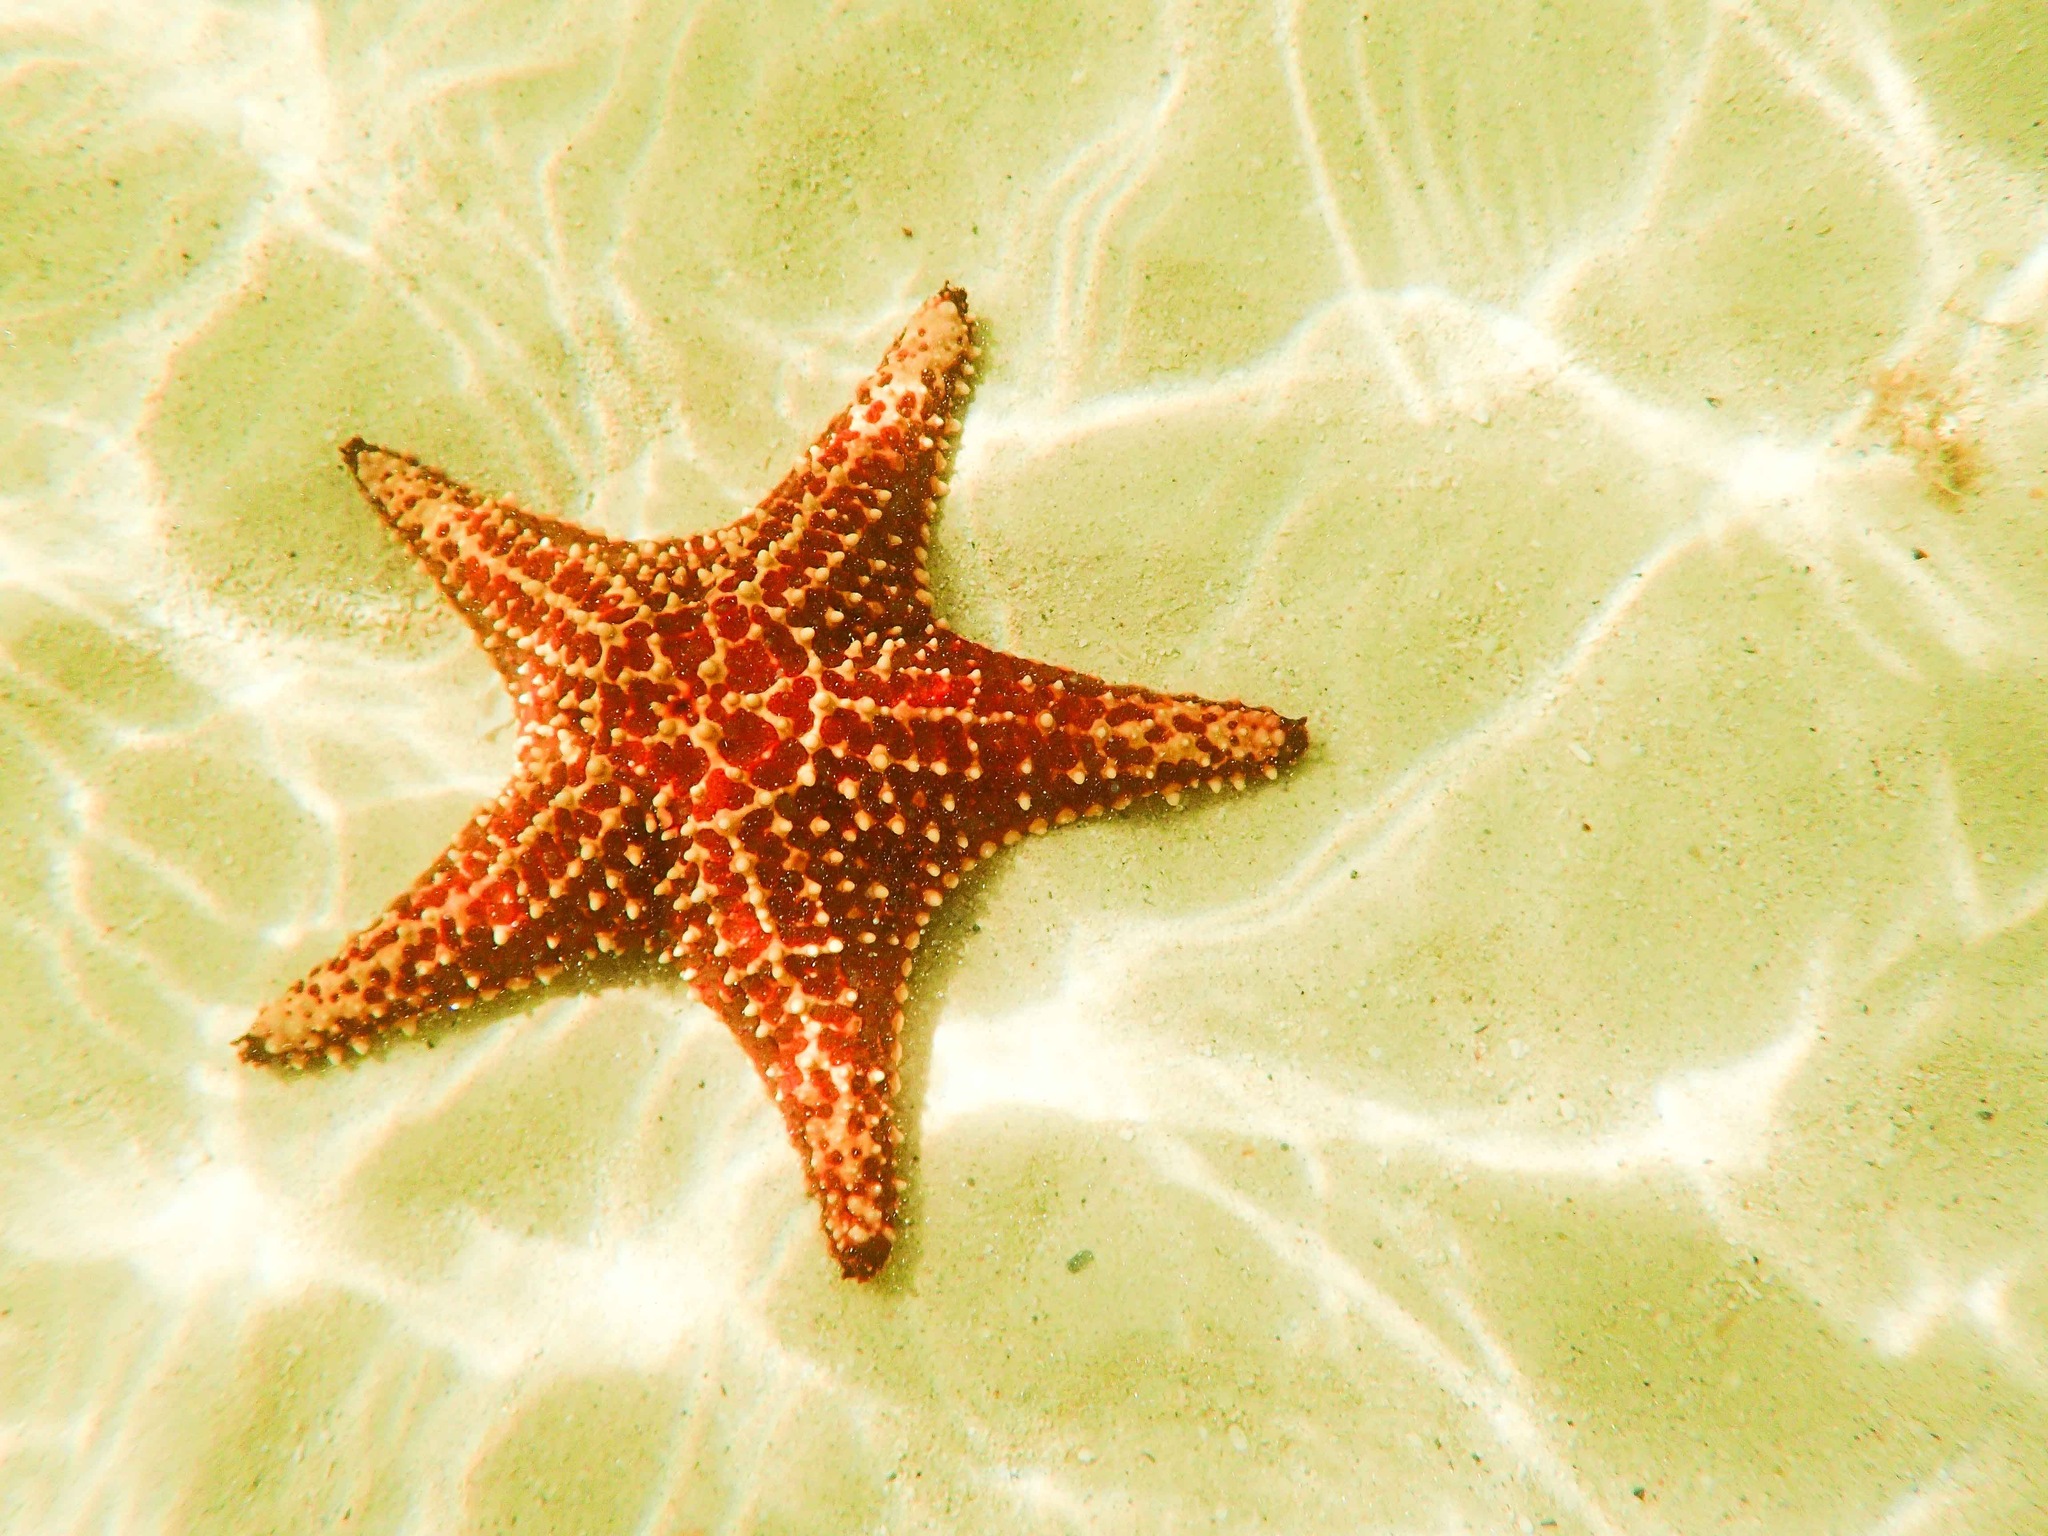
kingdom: Animalia
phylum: Echinodermata
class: Asteroidea
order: Valvatida
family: Oreasteridae
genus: Oreaster
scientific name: Oreaster reticulatus
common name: Cushion sea star
